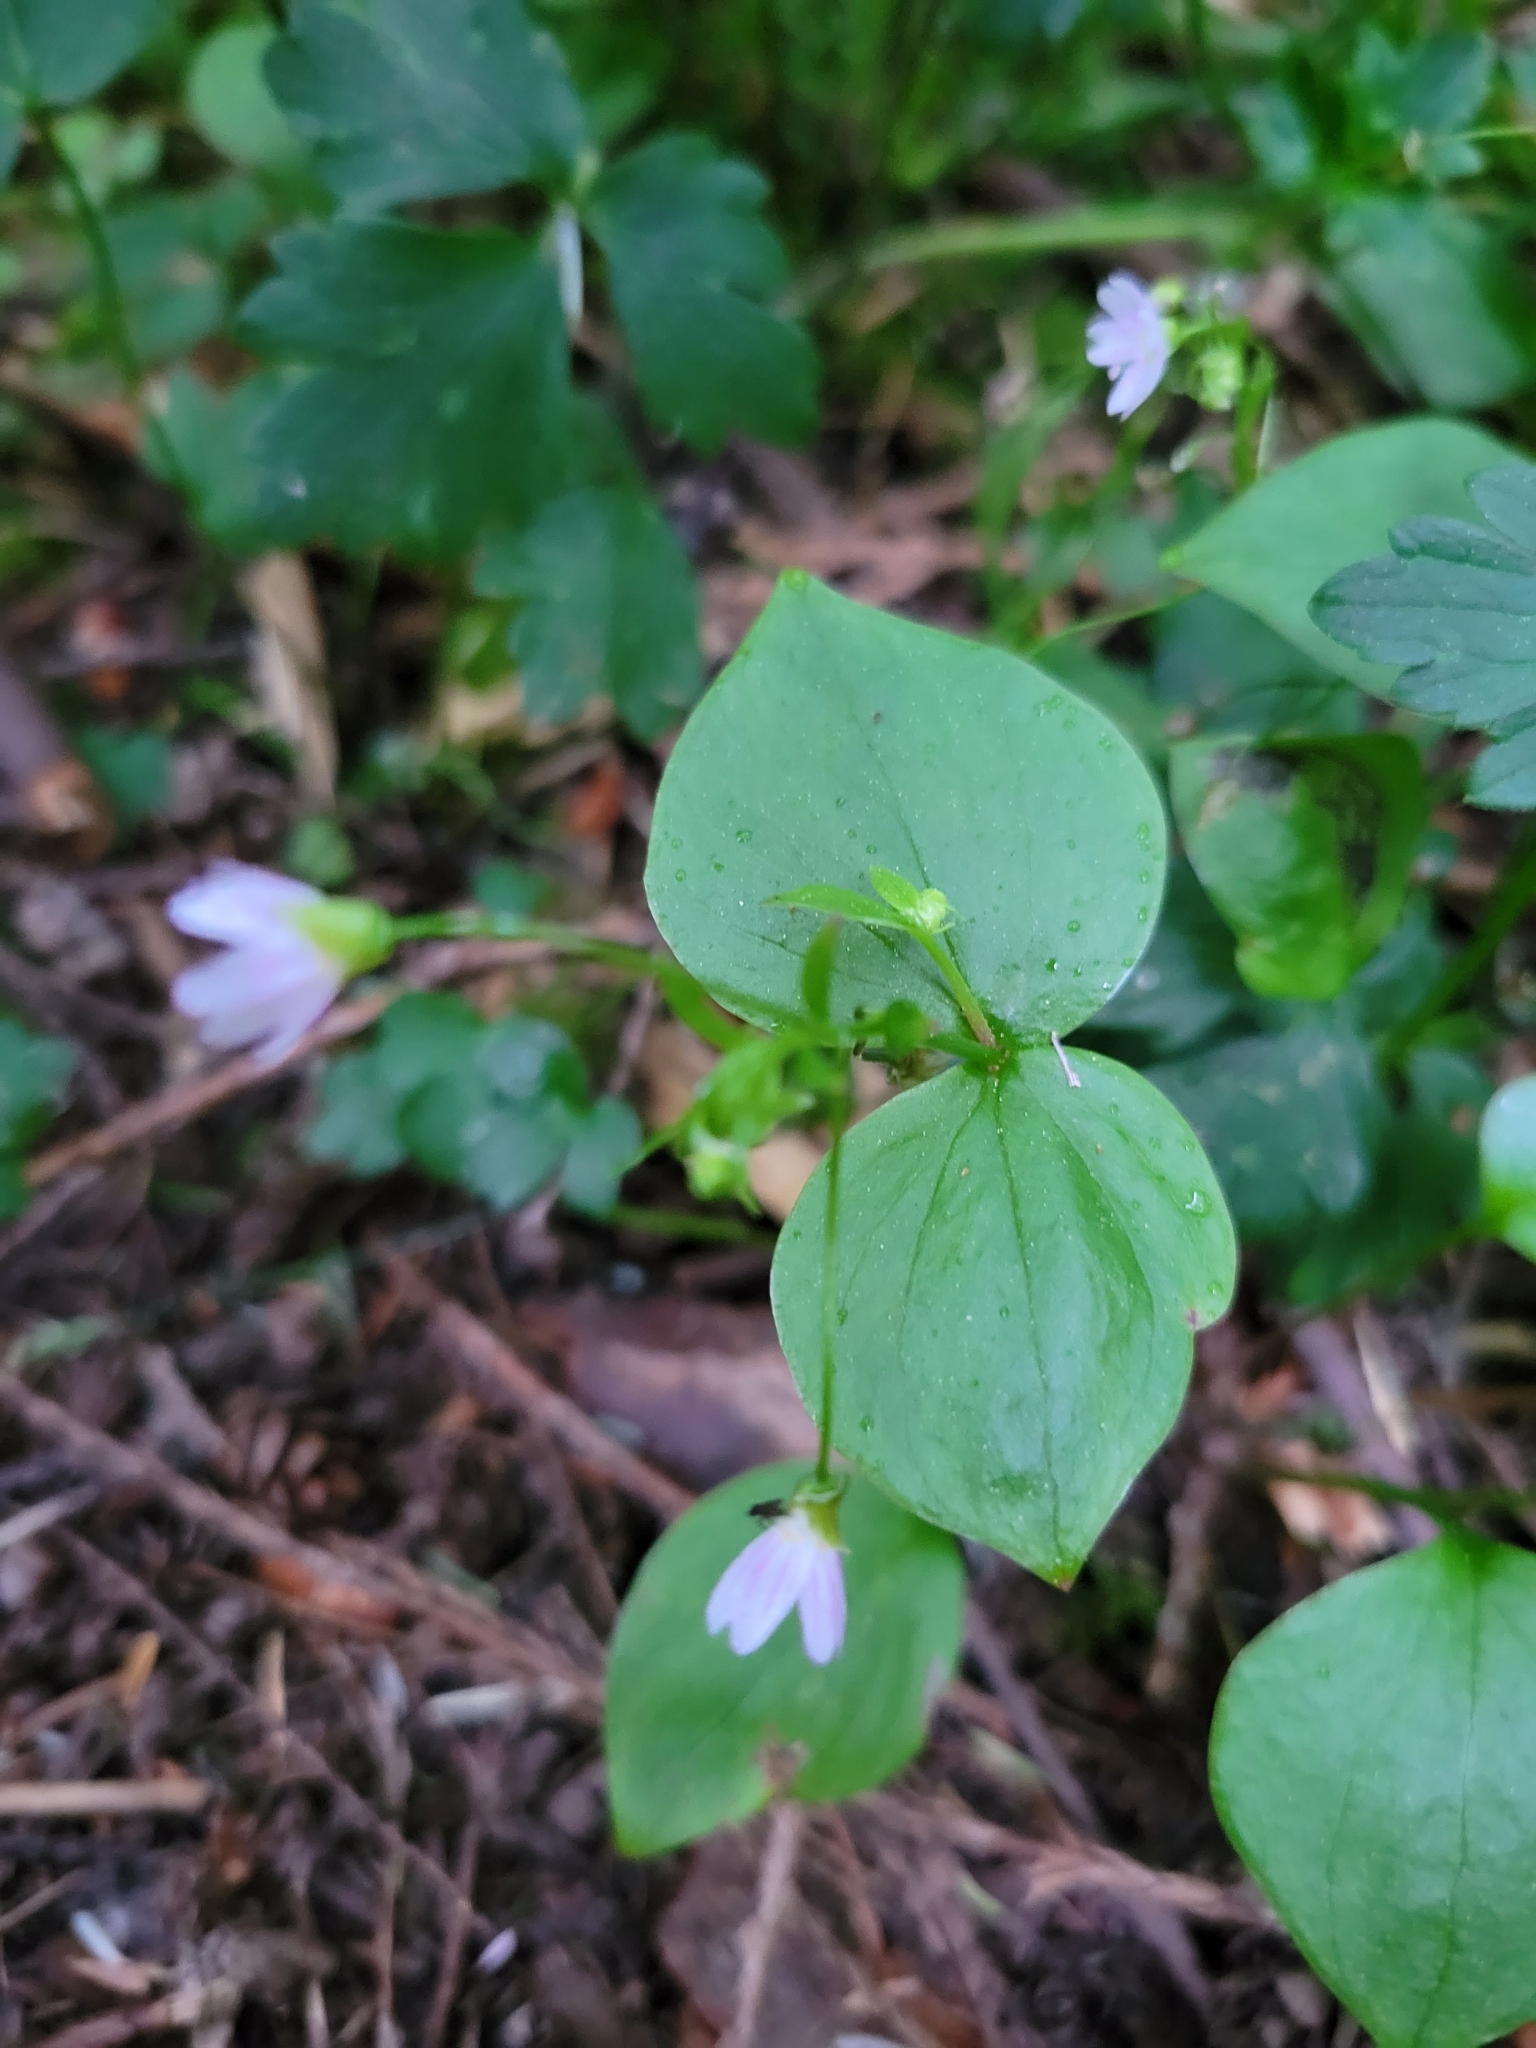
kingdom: Plantae
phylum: Tracheophyta
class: Magnoliopsida
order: Caryophyllales
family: Montiaceae
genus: Claytonia
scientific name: Claytonia sibirica
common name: Pink purslane
